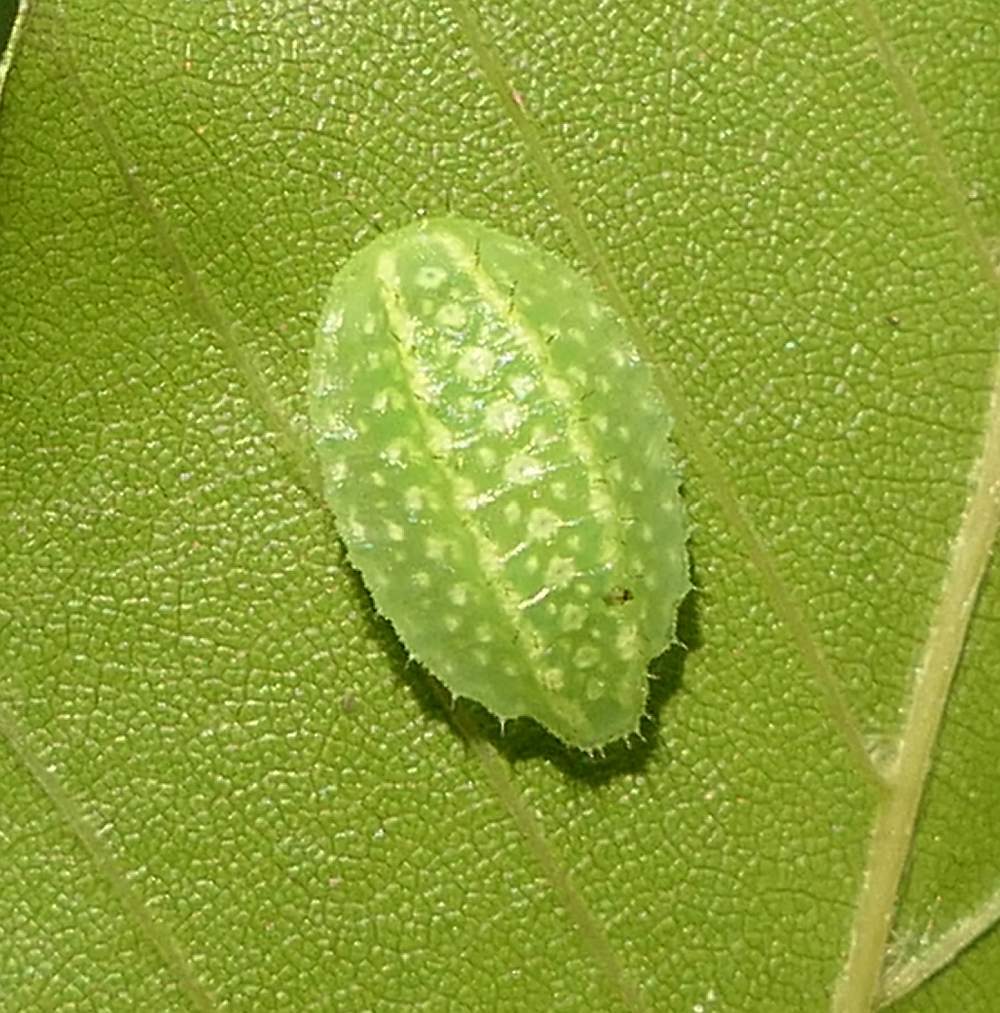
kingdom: Animalia
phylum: Arthropoda
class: Insecta
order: Lepidoptera
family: Limacodidae
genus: Lithacodes
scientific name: Lithacodes fasciola
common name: Yellow-shouldered slug moth
